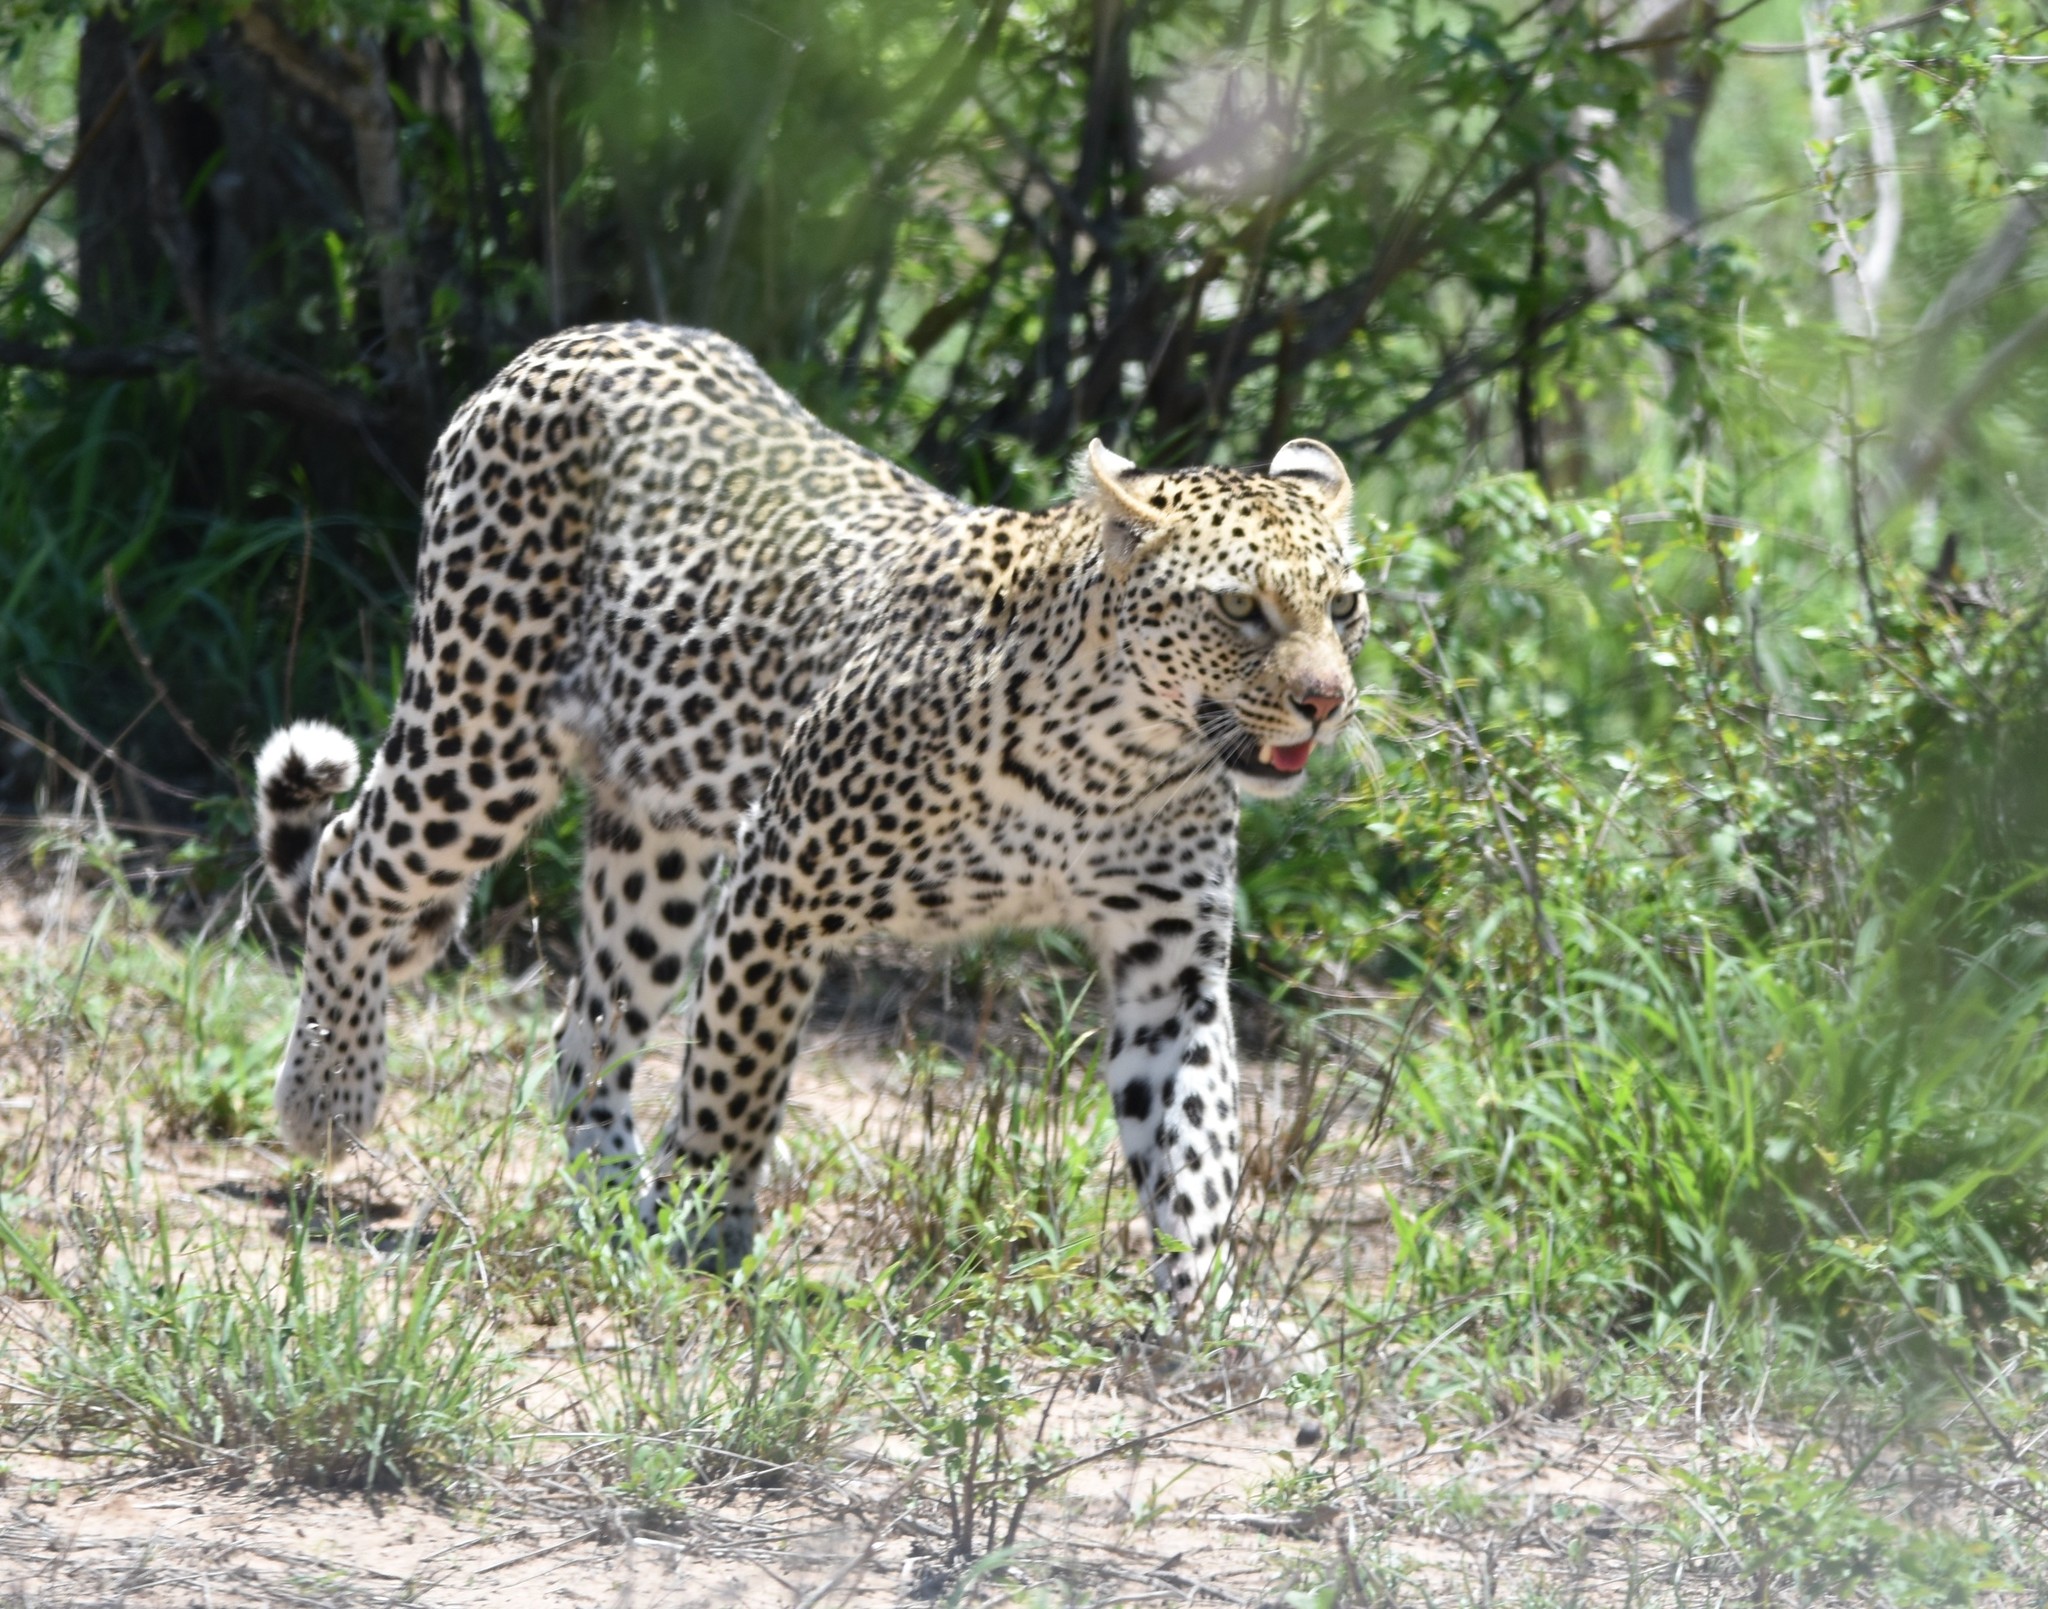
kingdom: Animalia
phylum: Chordata
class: Mammalia
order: Carnivora
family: Felidae
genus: Panthera
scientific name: Panthera pardus
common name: Leopard
